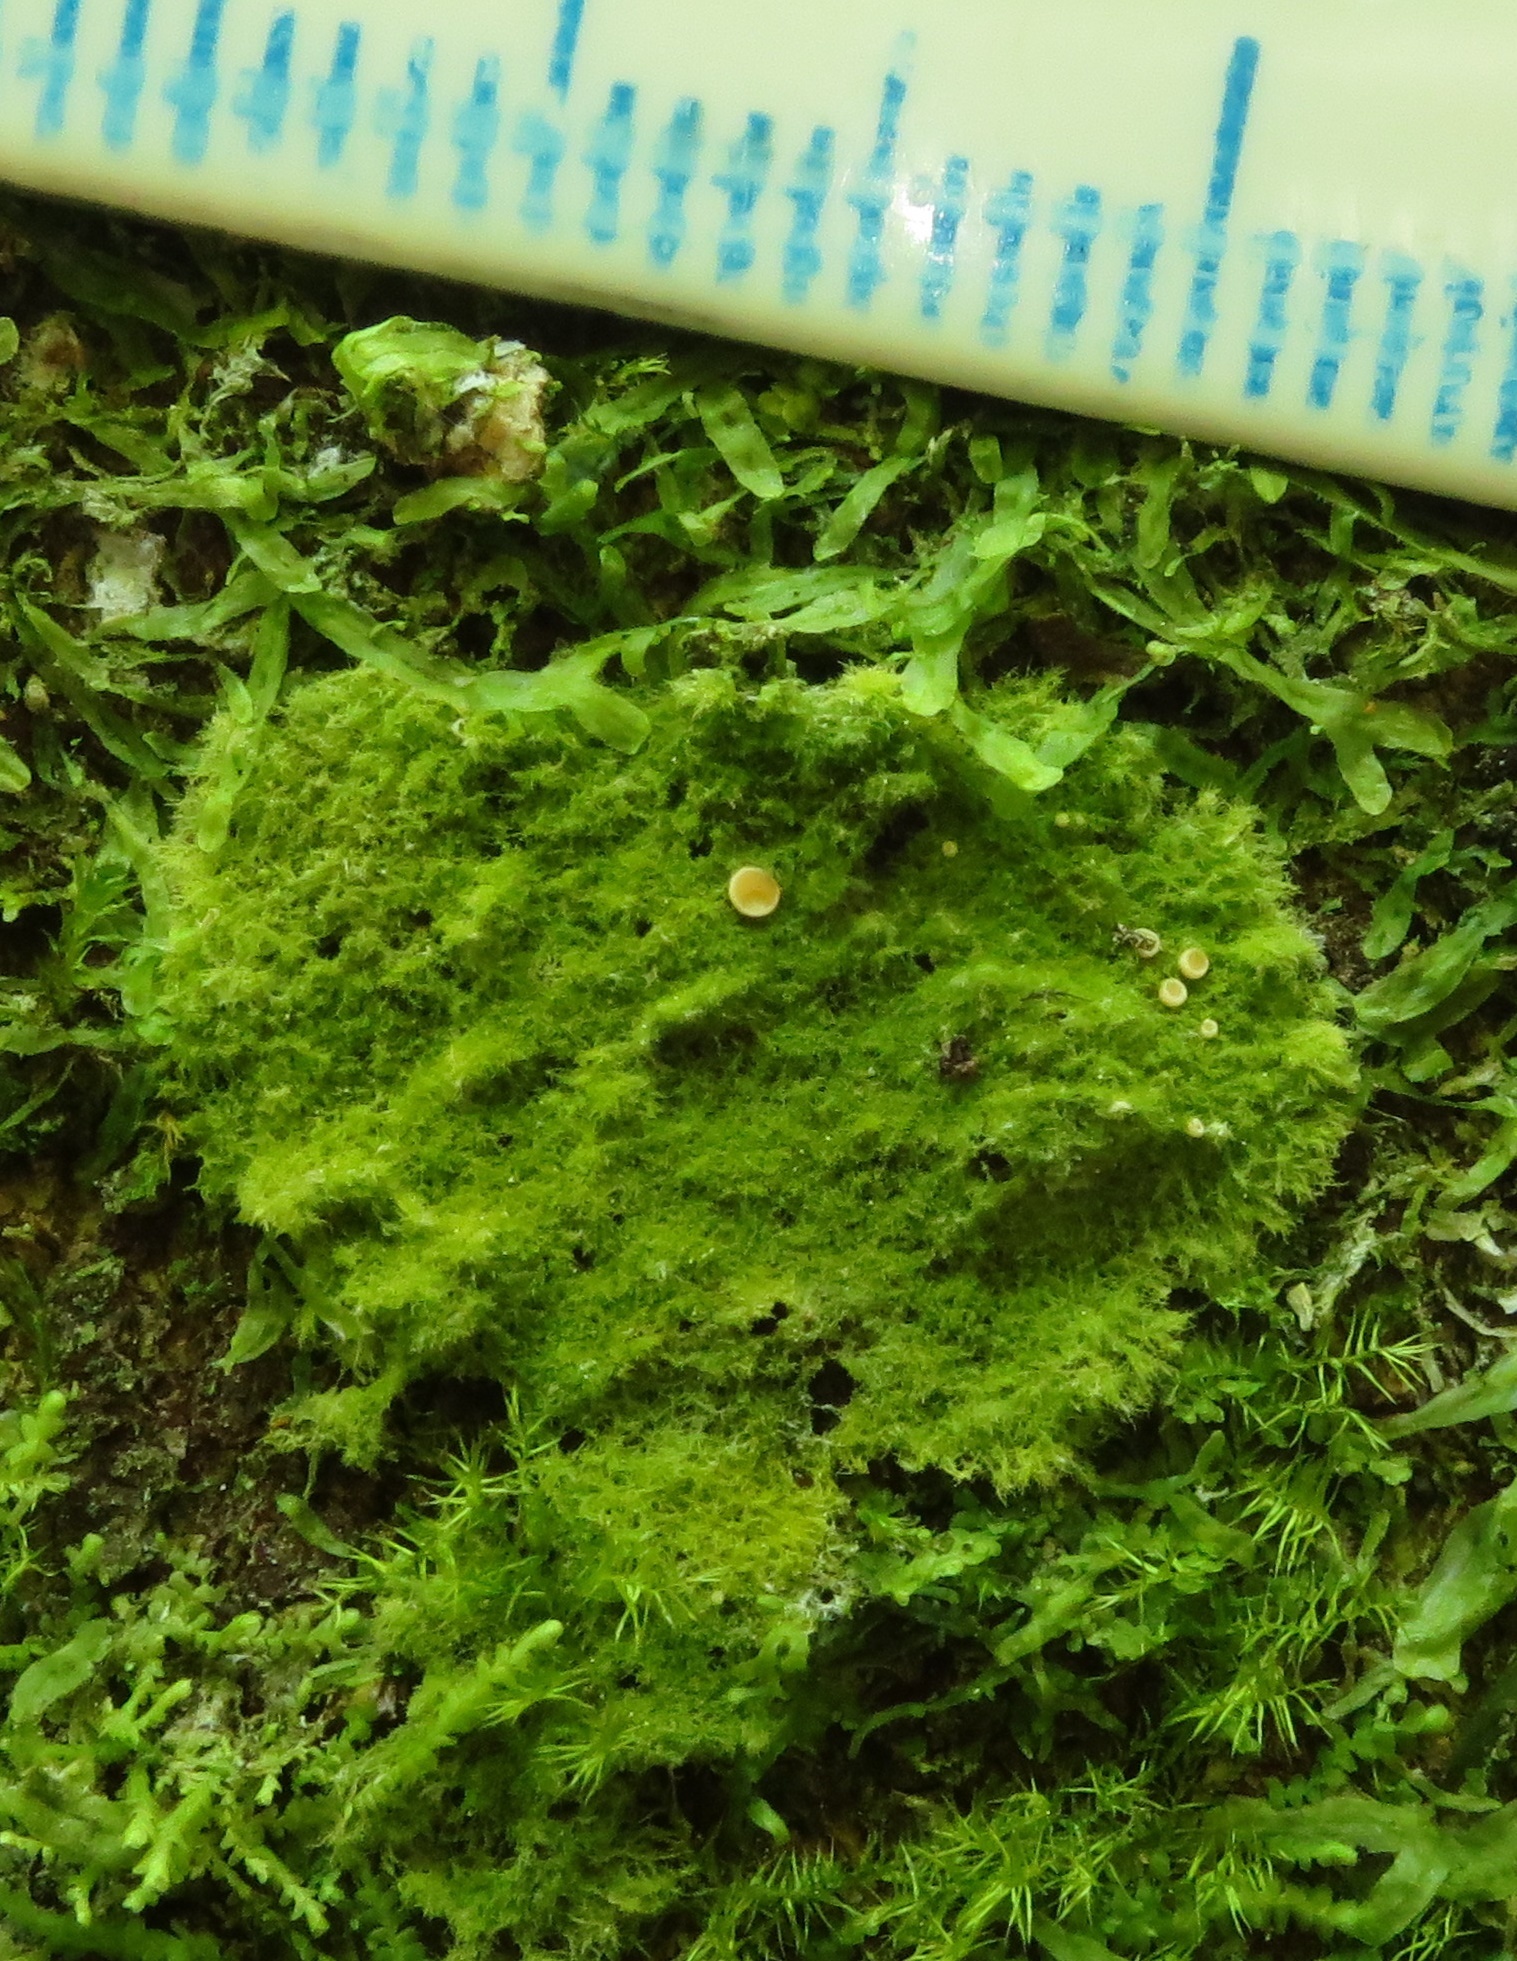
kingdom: Fungi
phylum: Ascomycota
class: Lecanoromycetes
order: Ostropales
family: Coenogoniaceae
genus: Coenogonium
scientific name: Coenogonium implexum
